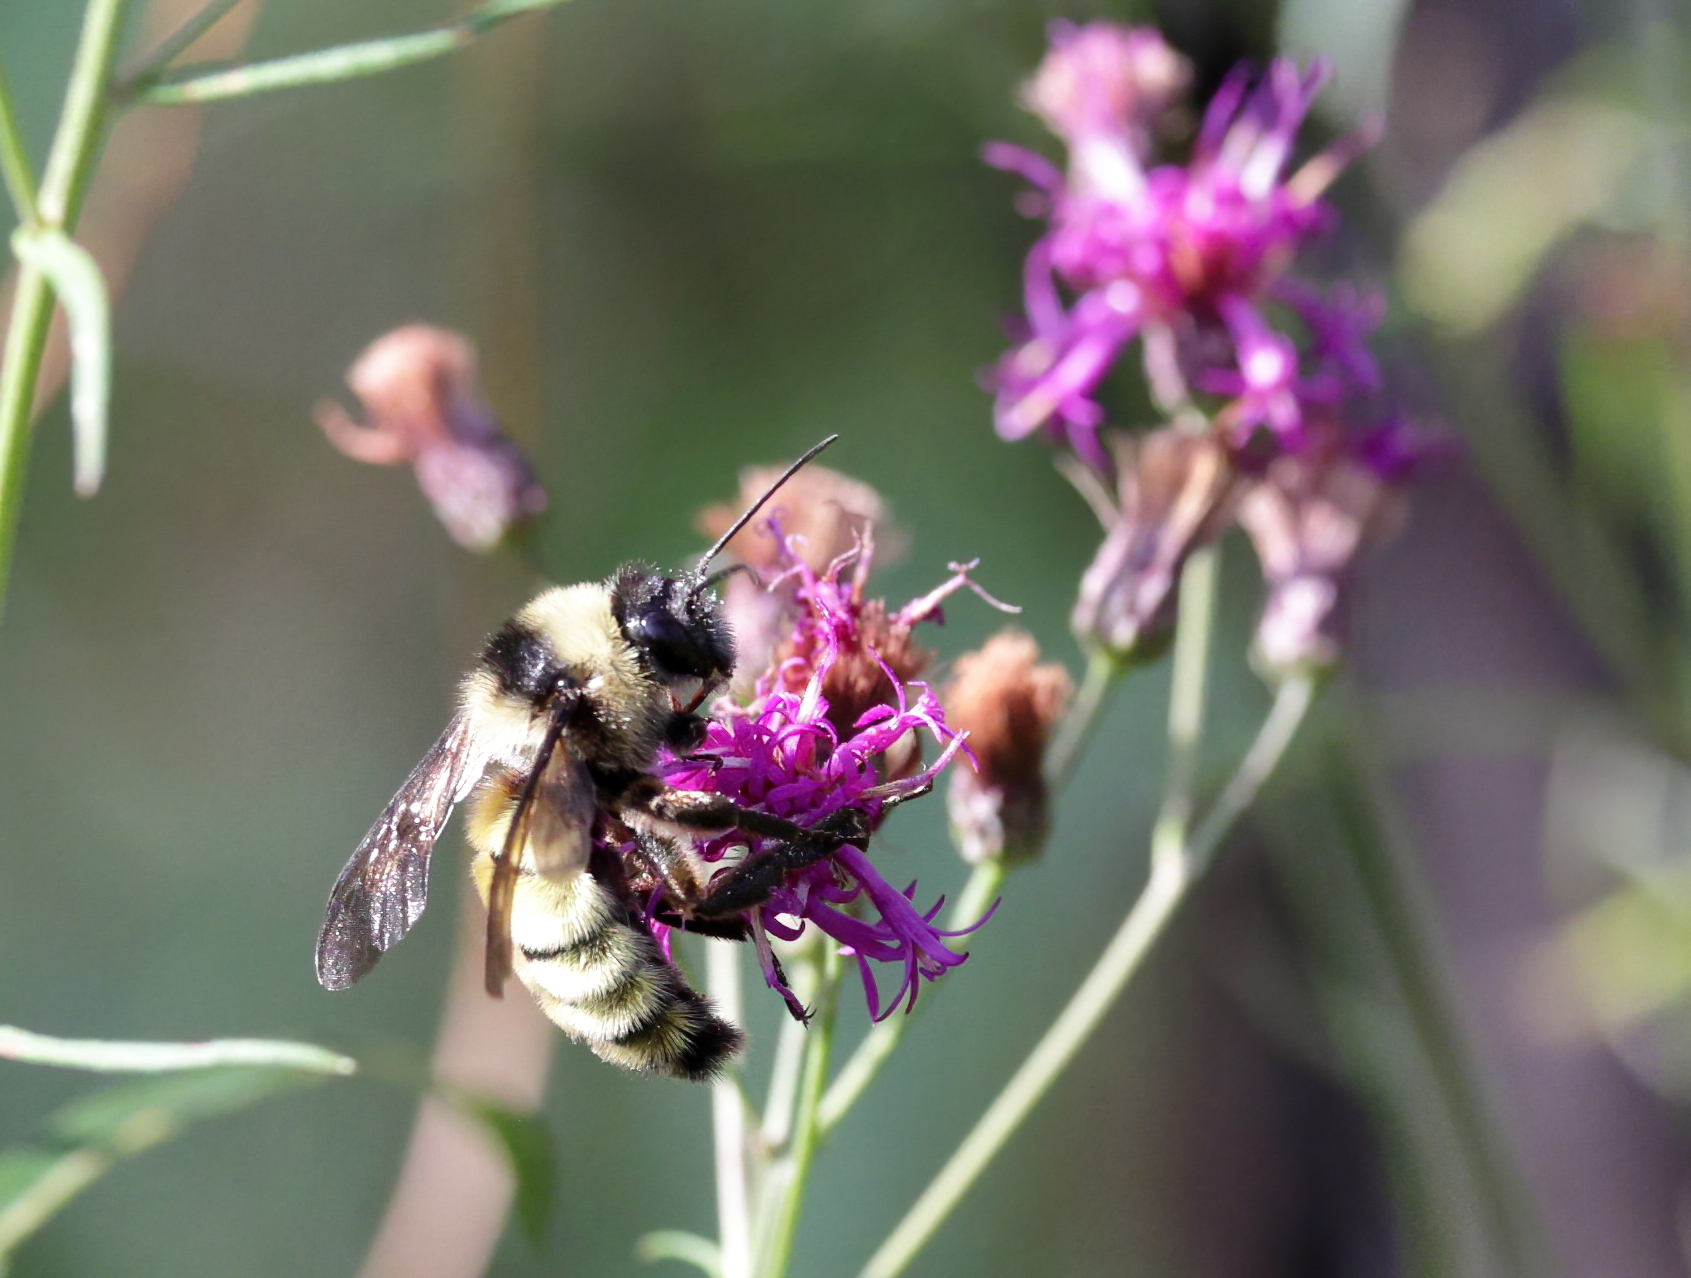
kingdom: Animalia
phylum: Arthropoda
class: Insecta
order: Hymenoptera
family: Apidae
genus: Bombus
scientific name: Bombus pensylvanicus
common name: Bumble bee
